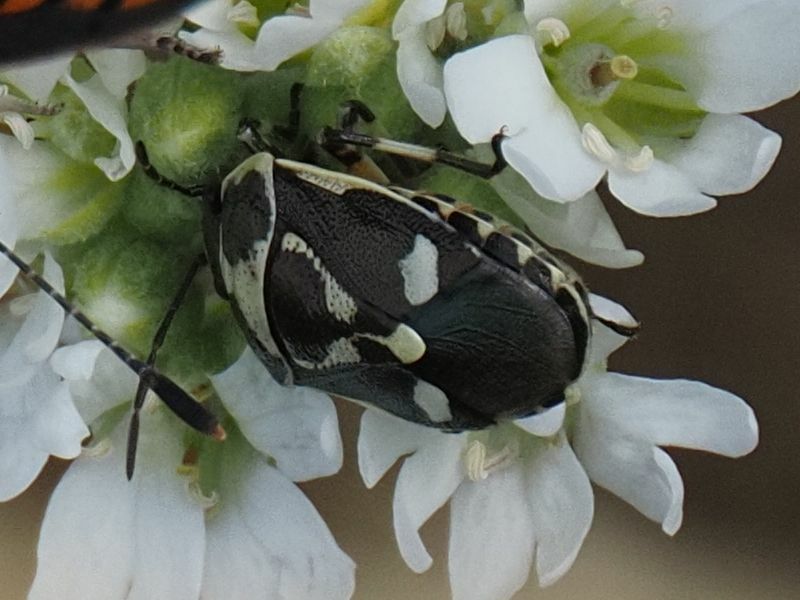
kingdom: Animalia
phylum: Arthropoda
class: Insecta
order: Hemiptera
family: Pentatomidae
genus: Eurydema
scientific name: Eurydema oleracea
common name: Cabbage bug
